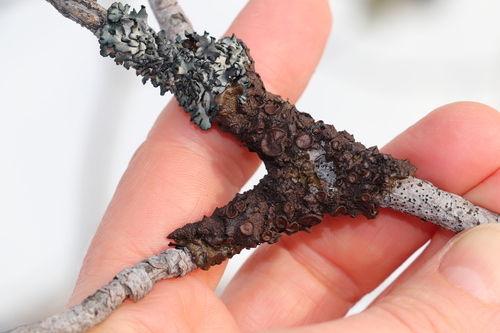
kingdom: Fungi
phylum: Ascomycota
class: Lecanoromycetes
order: Lecanorales
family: Parmeliaceae
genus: Melanohalea
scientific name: Melanohalea olivacea
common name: Spotted camouflage lichen
